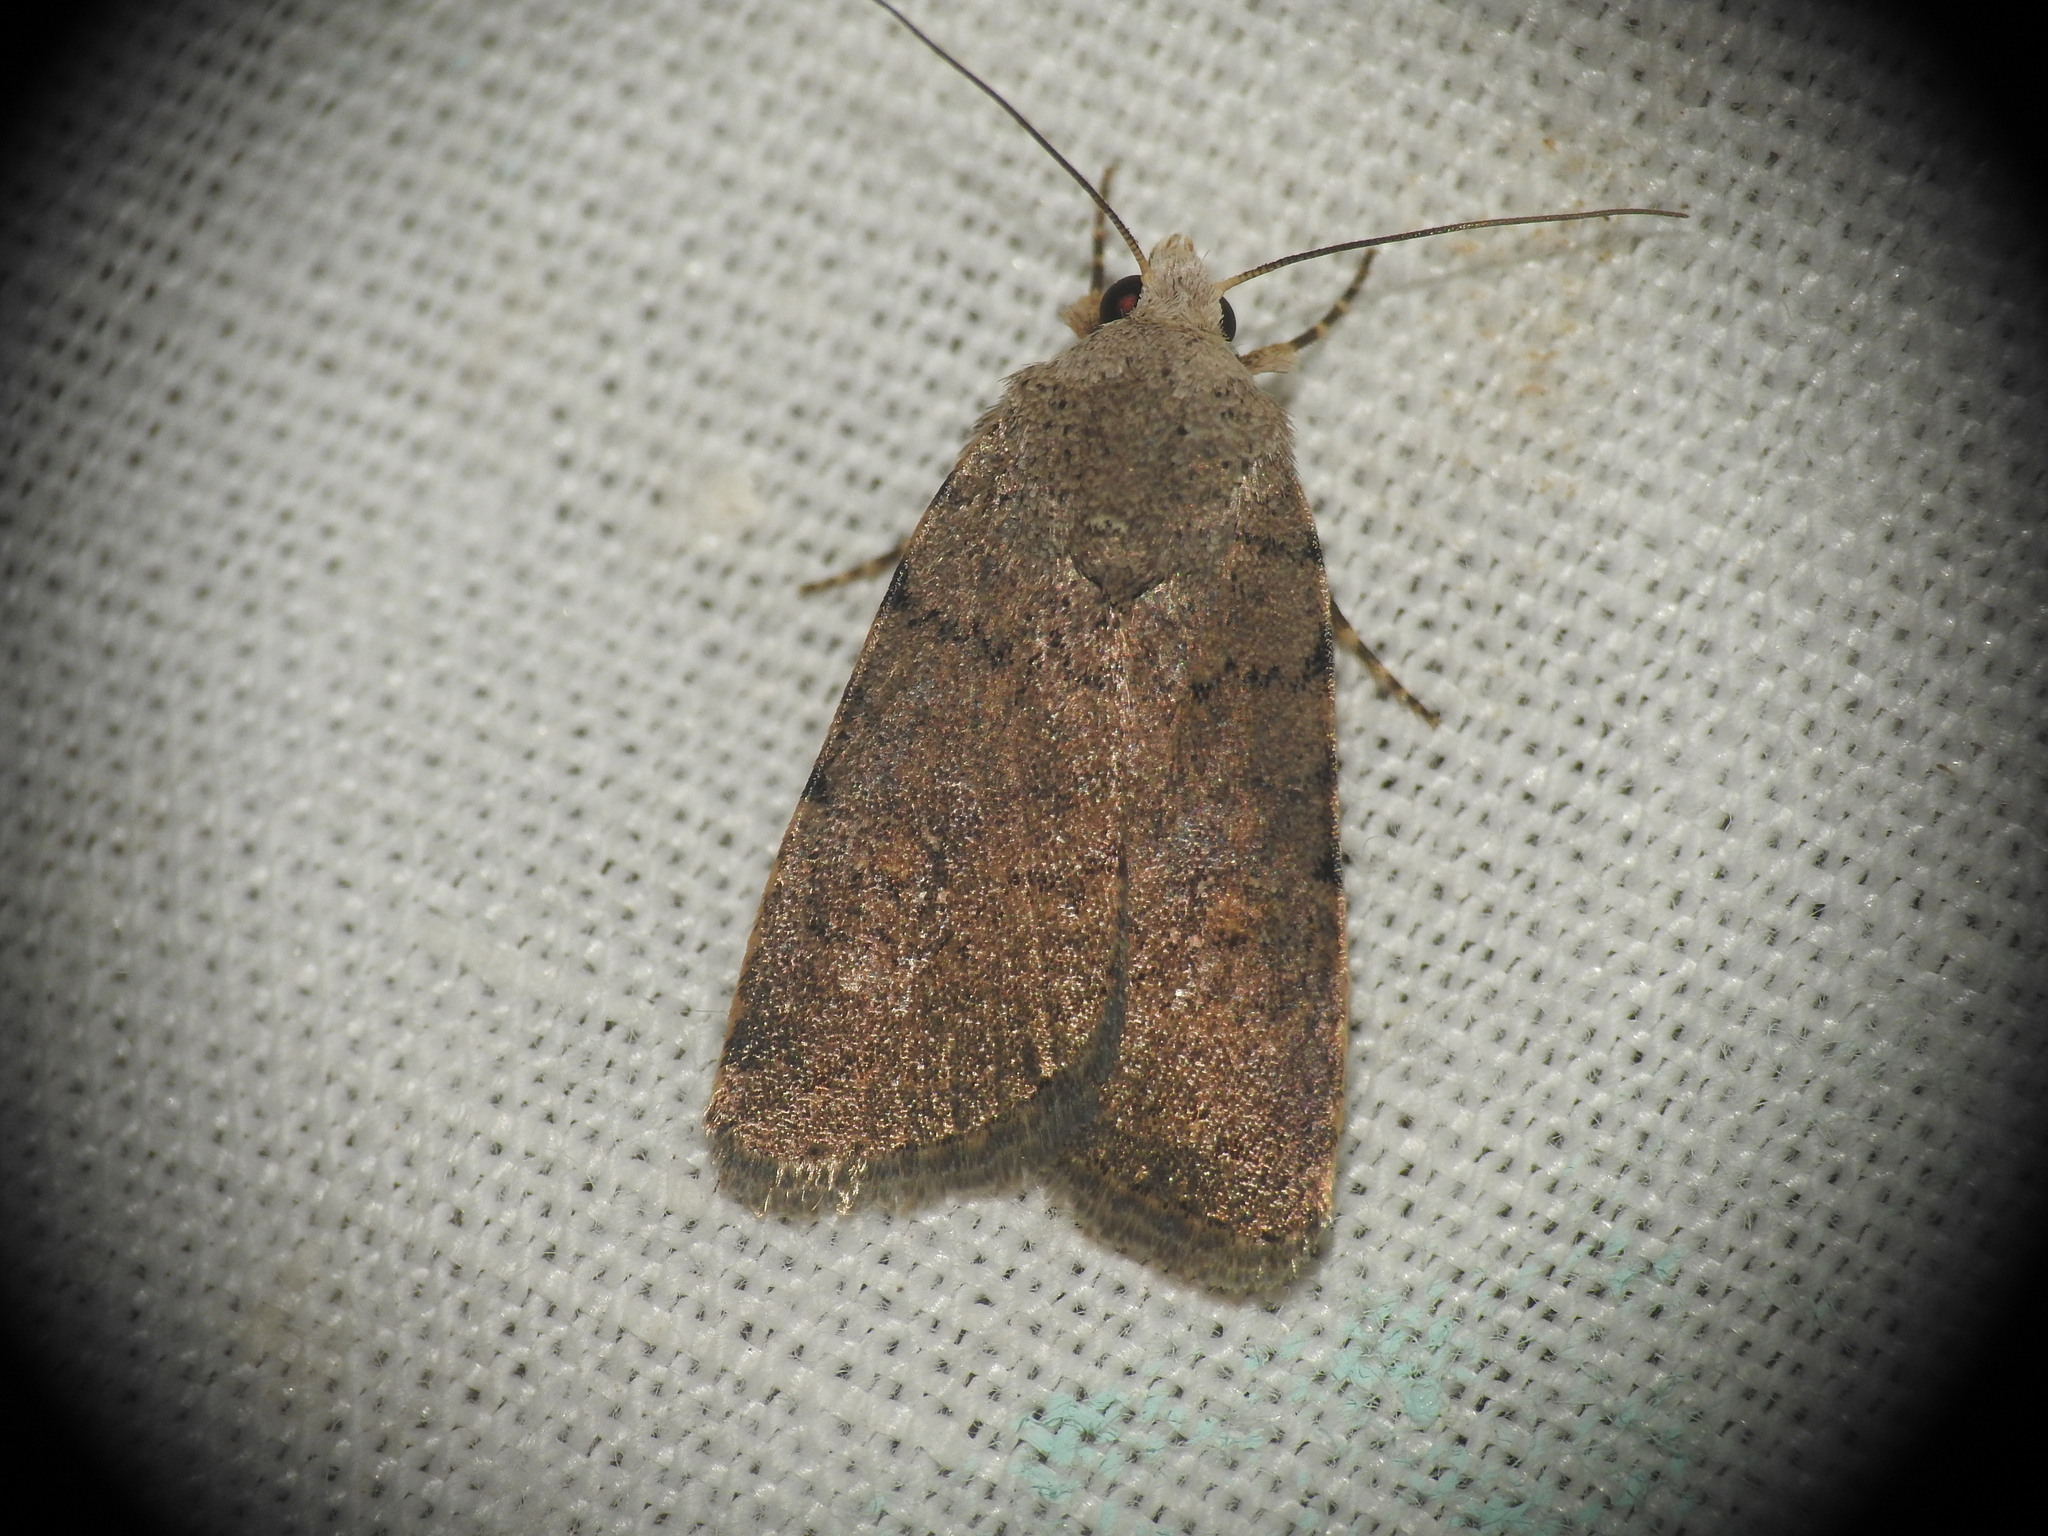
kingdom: Animalia
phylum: Arthropoda
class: Insecta
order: Lepidoptera
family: Noctuidae
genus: Caradrina
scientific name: Caradrina flavirena
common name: Lorimer's rustic
